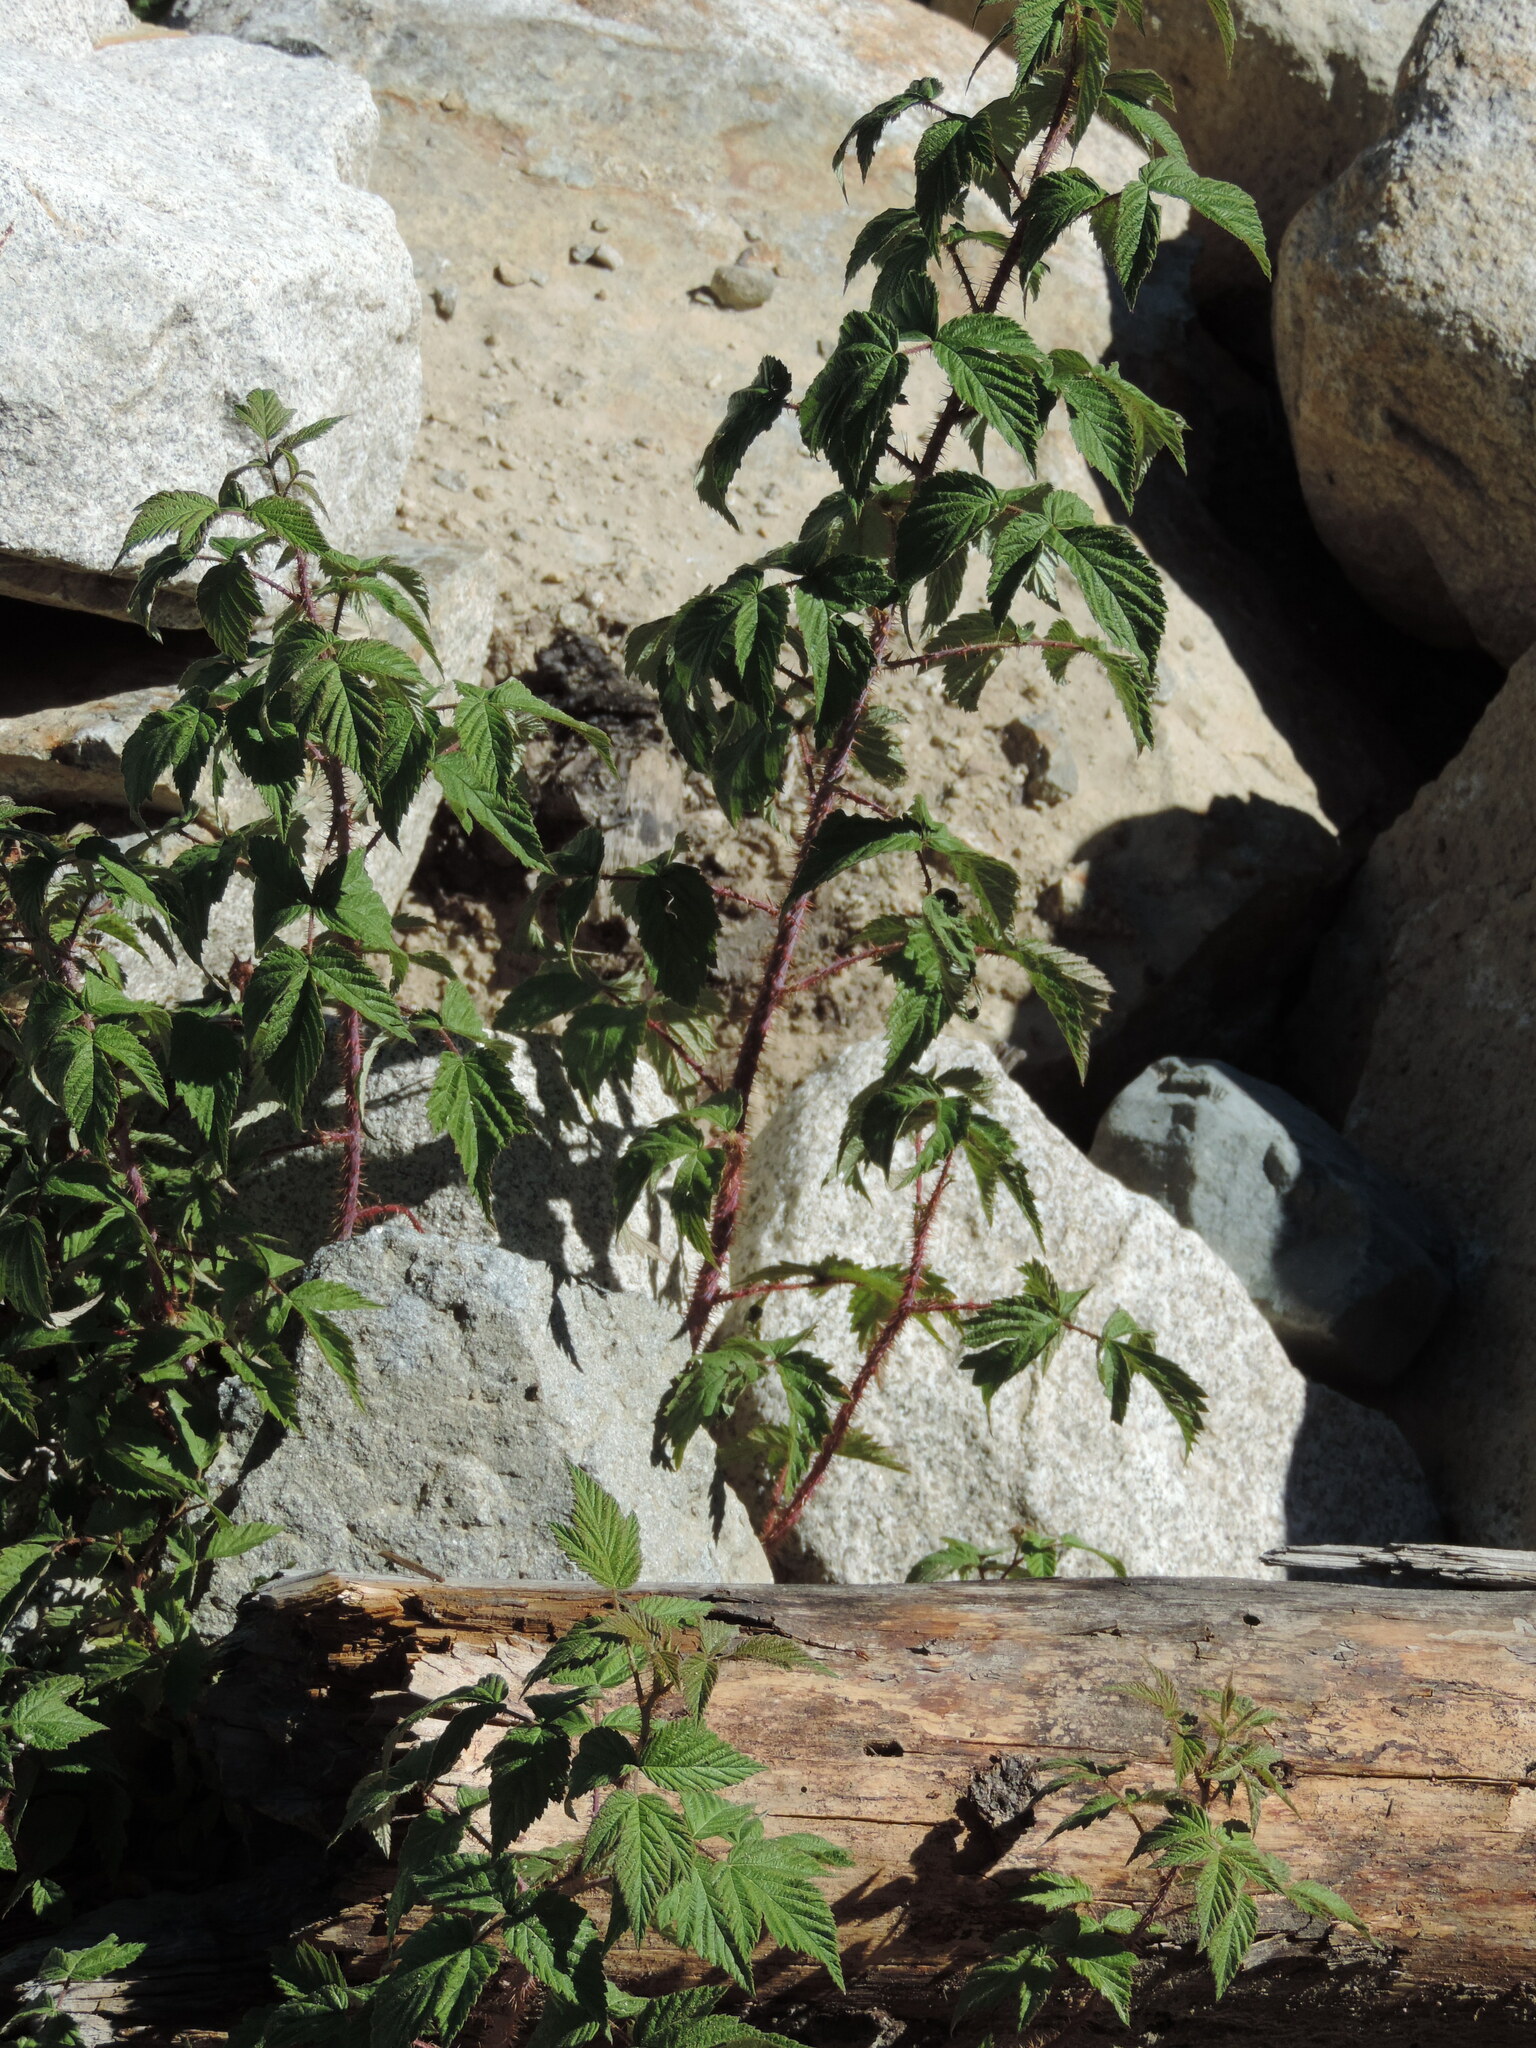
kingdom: Plantae
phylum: Tracheophyta
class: Magnoliopsida
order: Rosales
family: Rosaceae
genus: Rubus
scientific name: Rubus idaeus
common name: Raspberry
